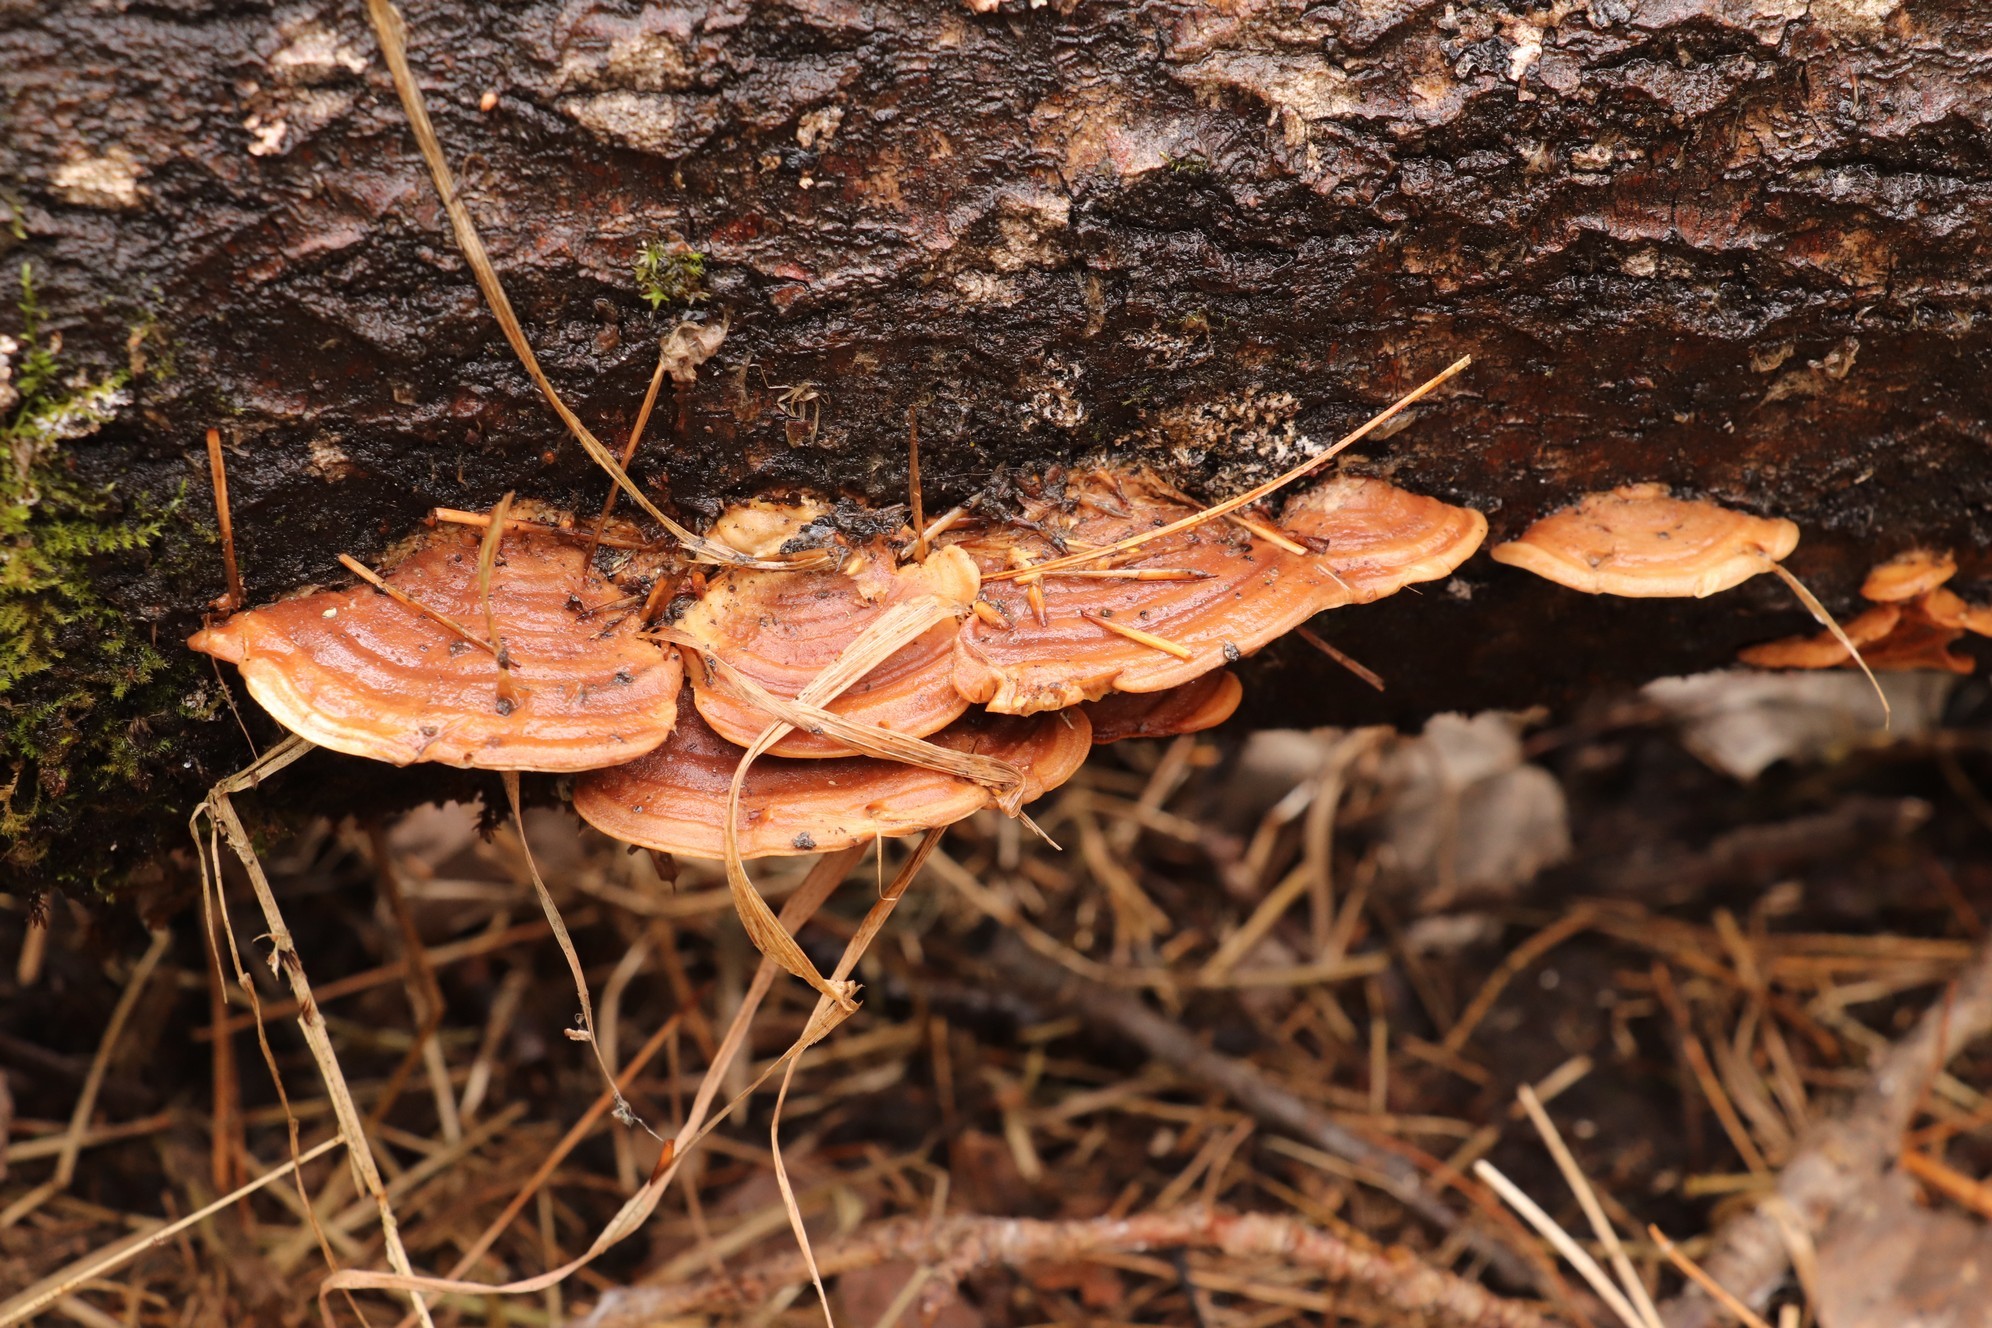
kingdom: Fungi
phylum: Basidiomycota
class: Agaricomycetes
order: Polyporales
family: Steccherinaceae
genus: Metuloidea
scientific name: Metuloidea murashkinskyi
